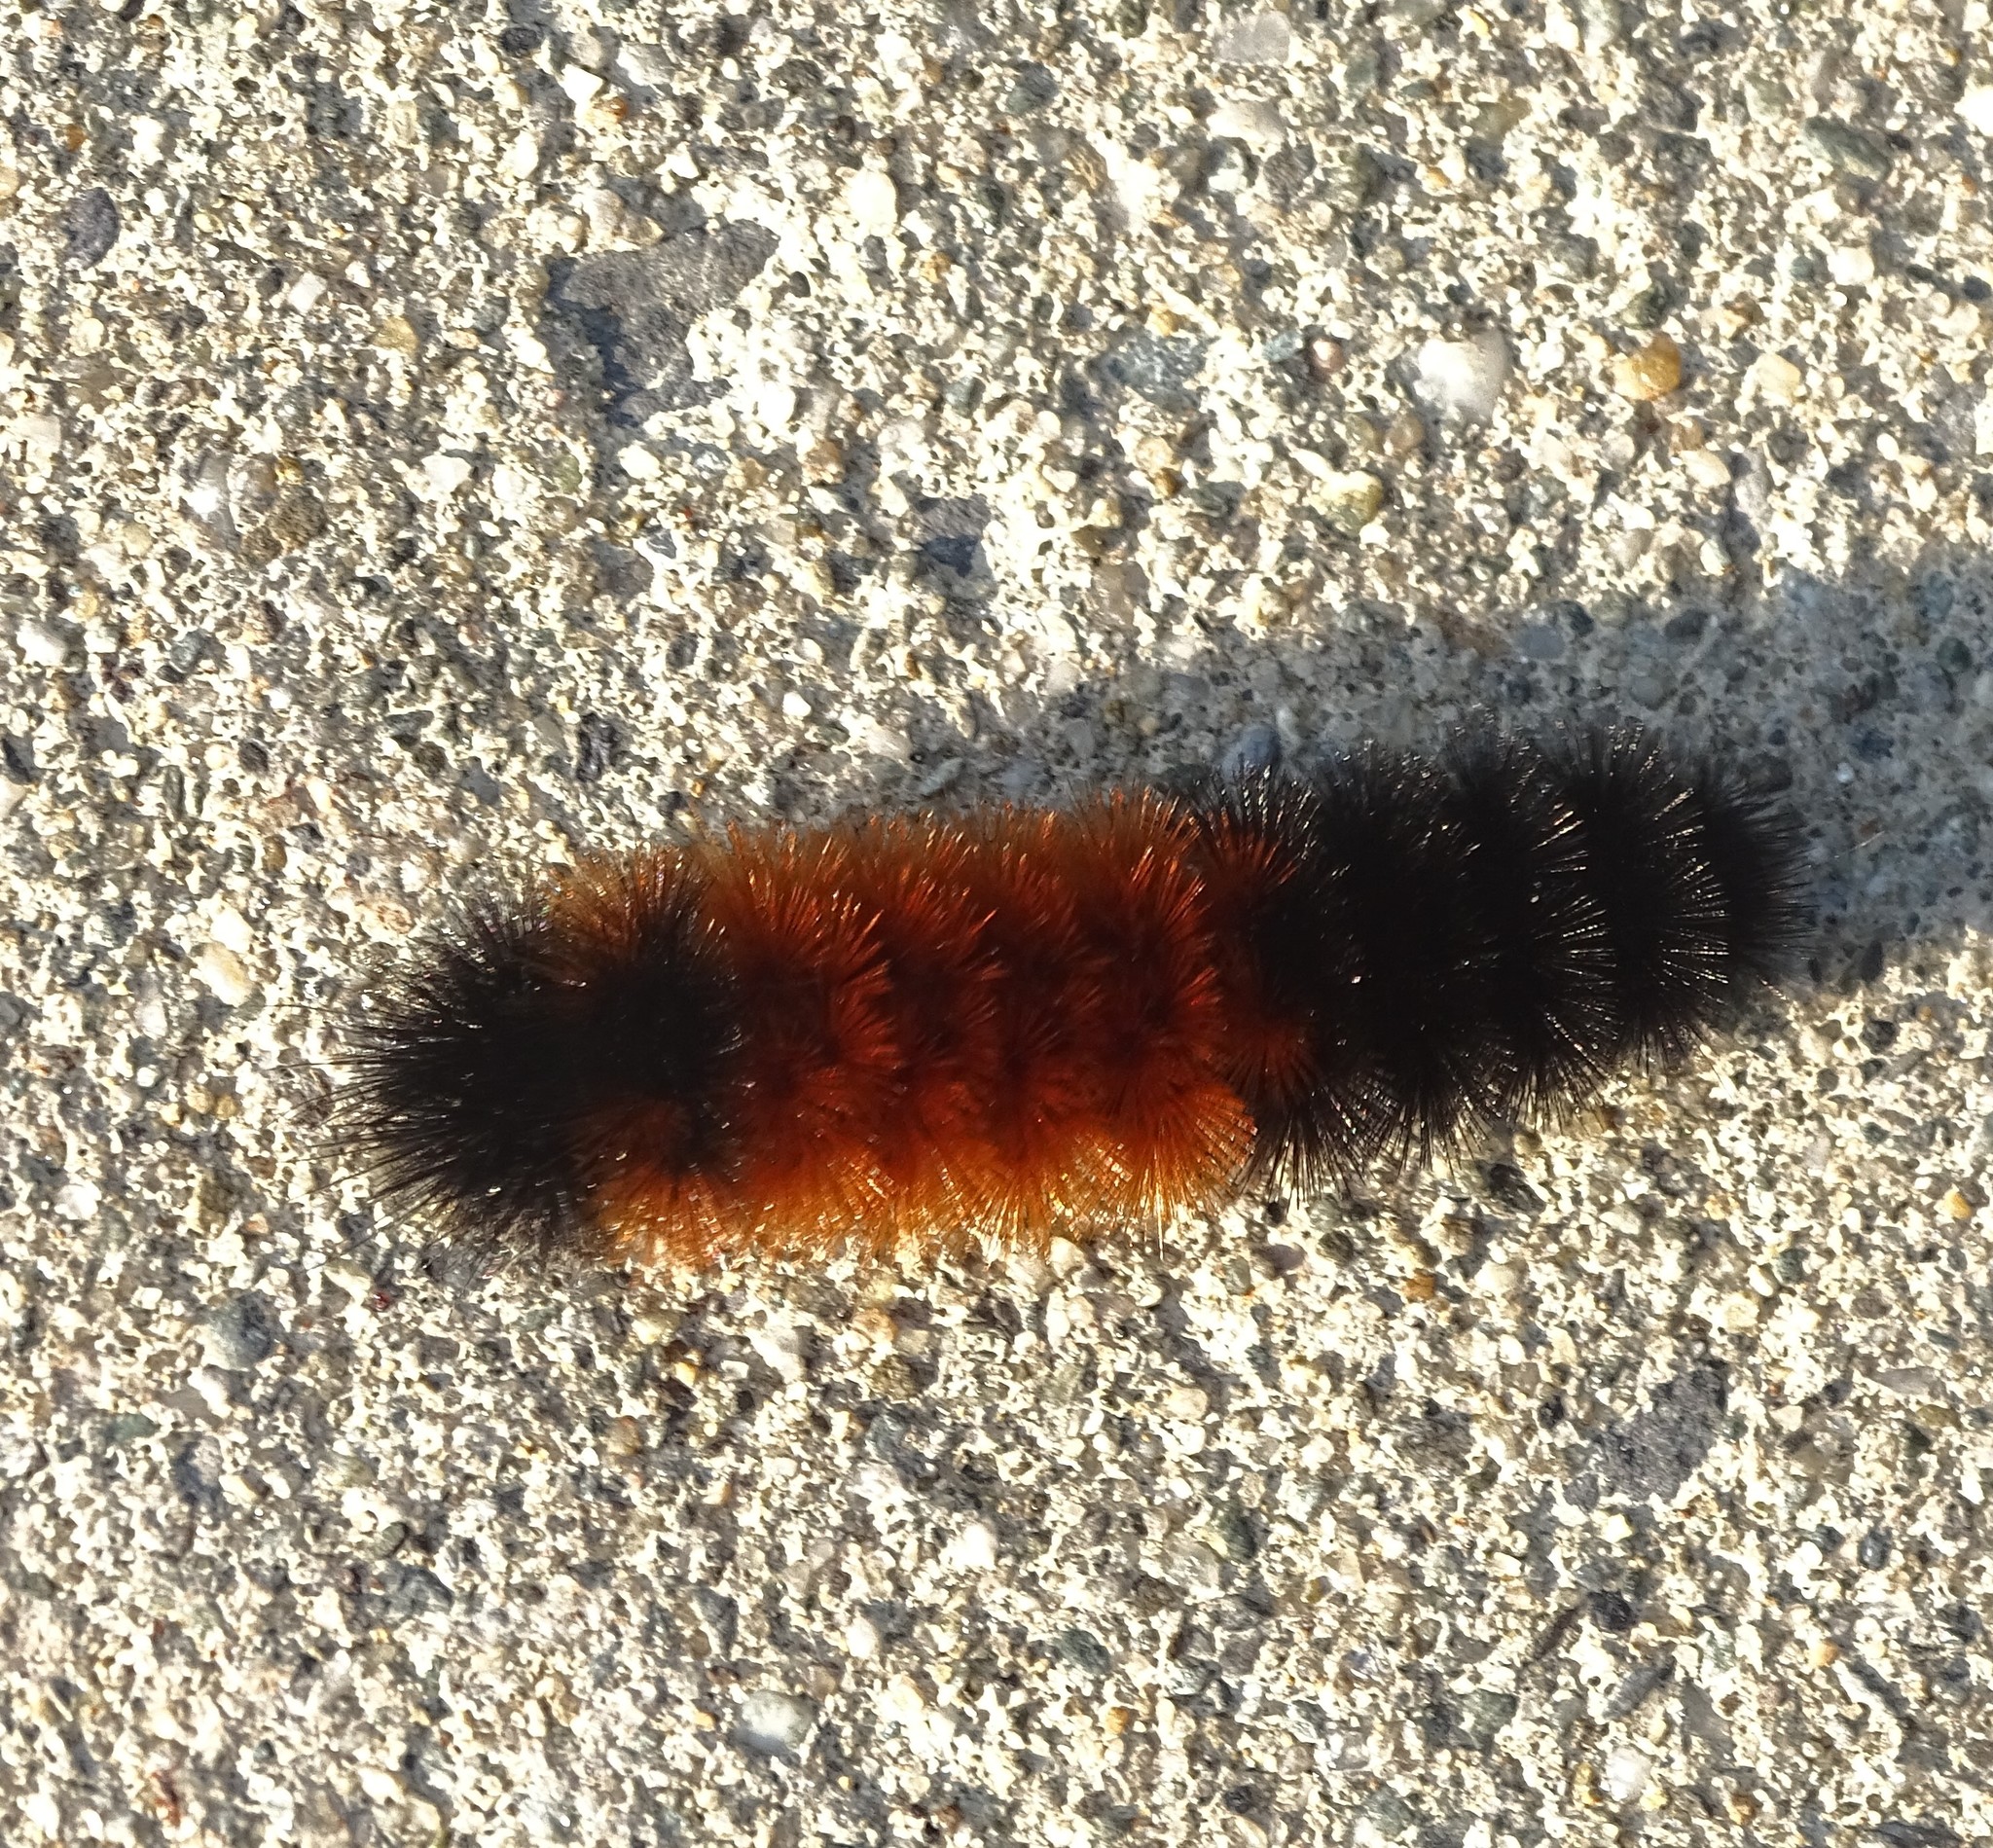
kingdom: Animalia
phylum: Arthropoda
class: Insecta
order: Lepidoptera
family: Erebidae
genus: Pyrrharctia
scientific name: Pyrrharctia isabella
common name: Isabella tiger moth
